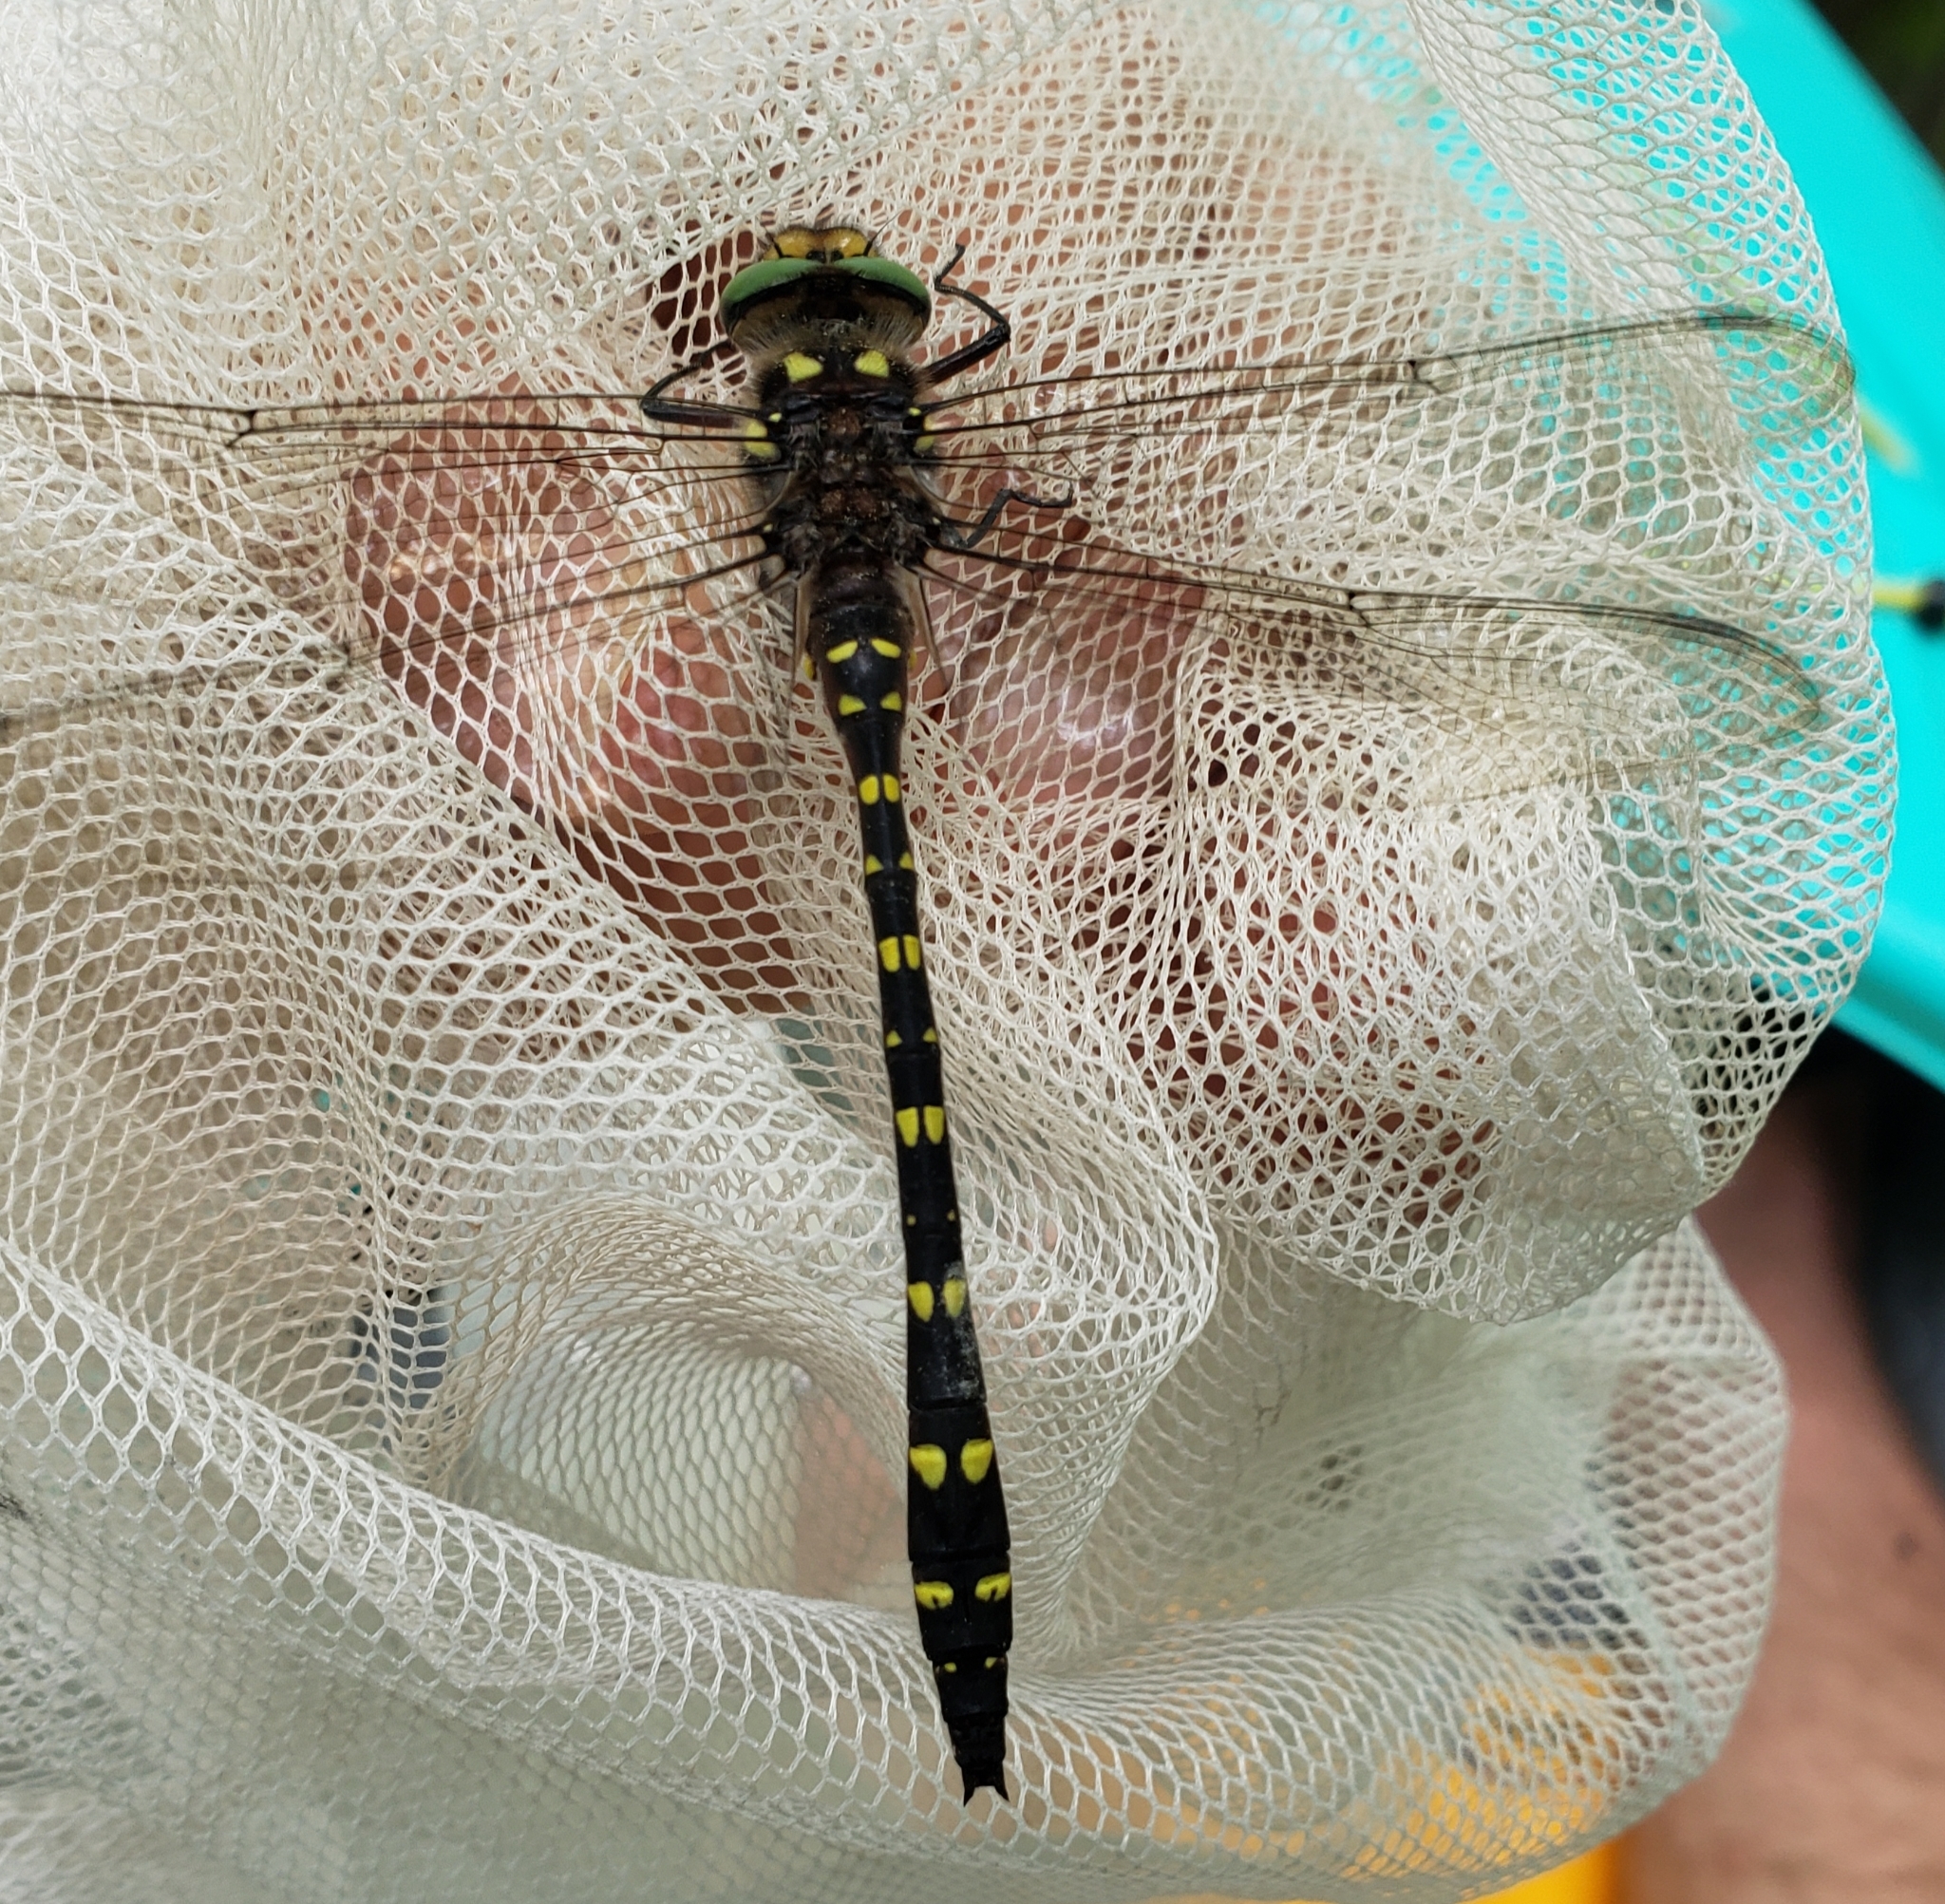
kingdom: Animalia
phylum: Arthropoda
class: Insecta
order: Odonata
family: Cordulegastridae
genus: Cordulegaster
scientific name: Cordulegaster maculata
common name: Twin-spotted spiketail
